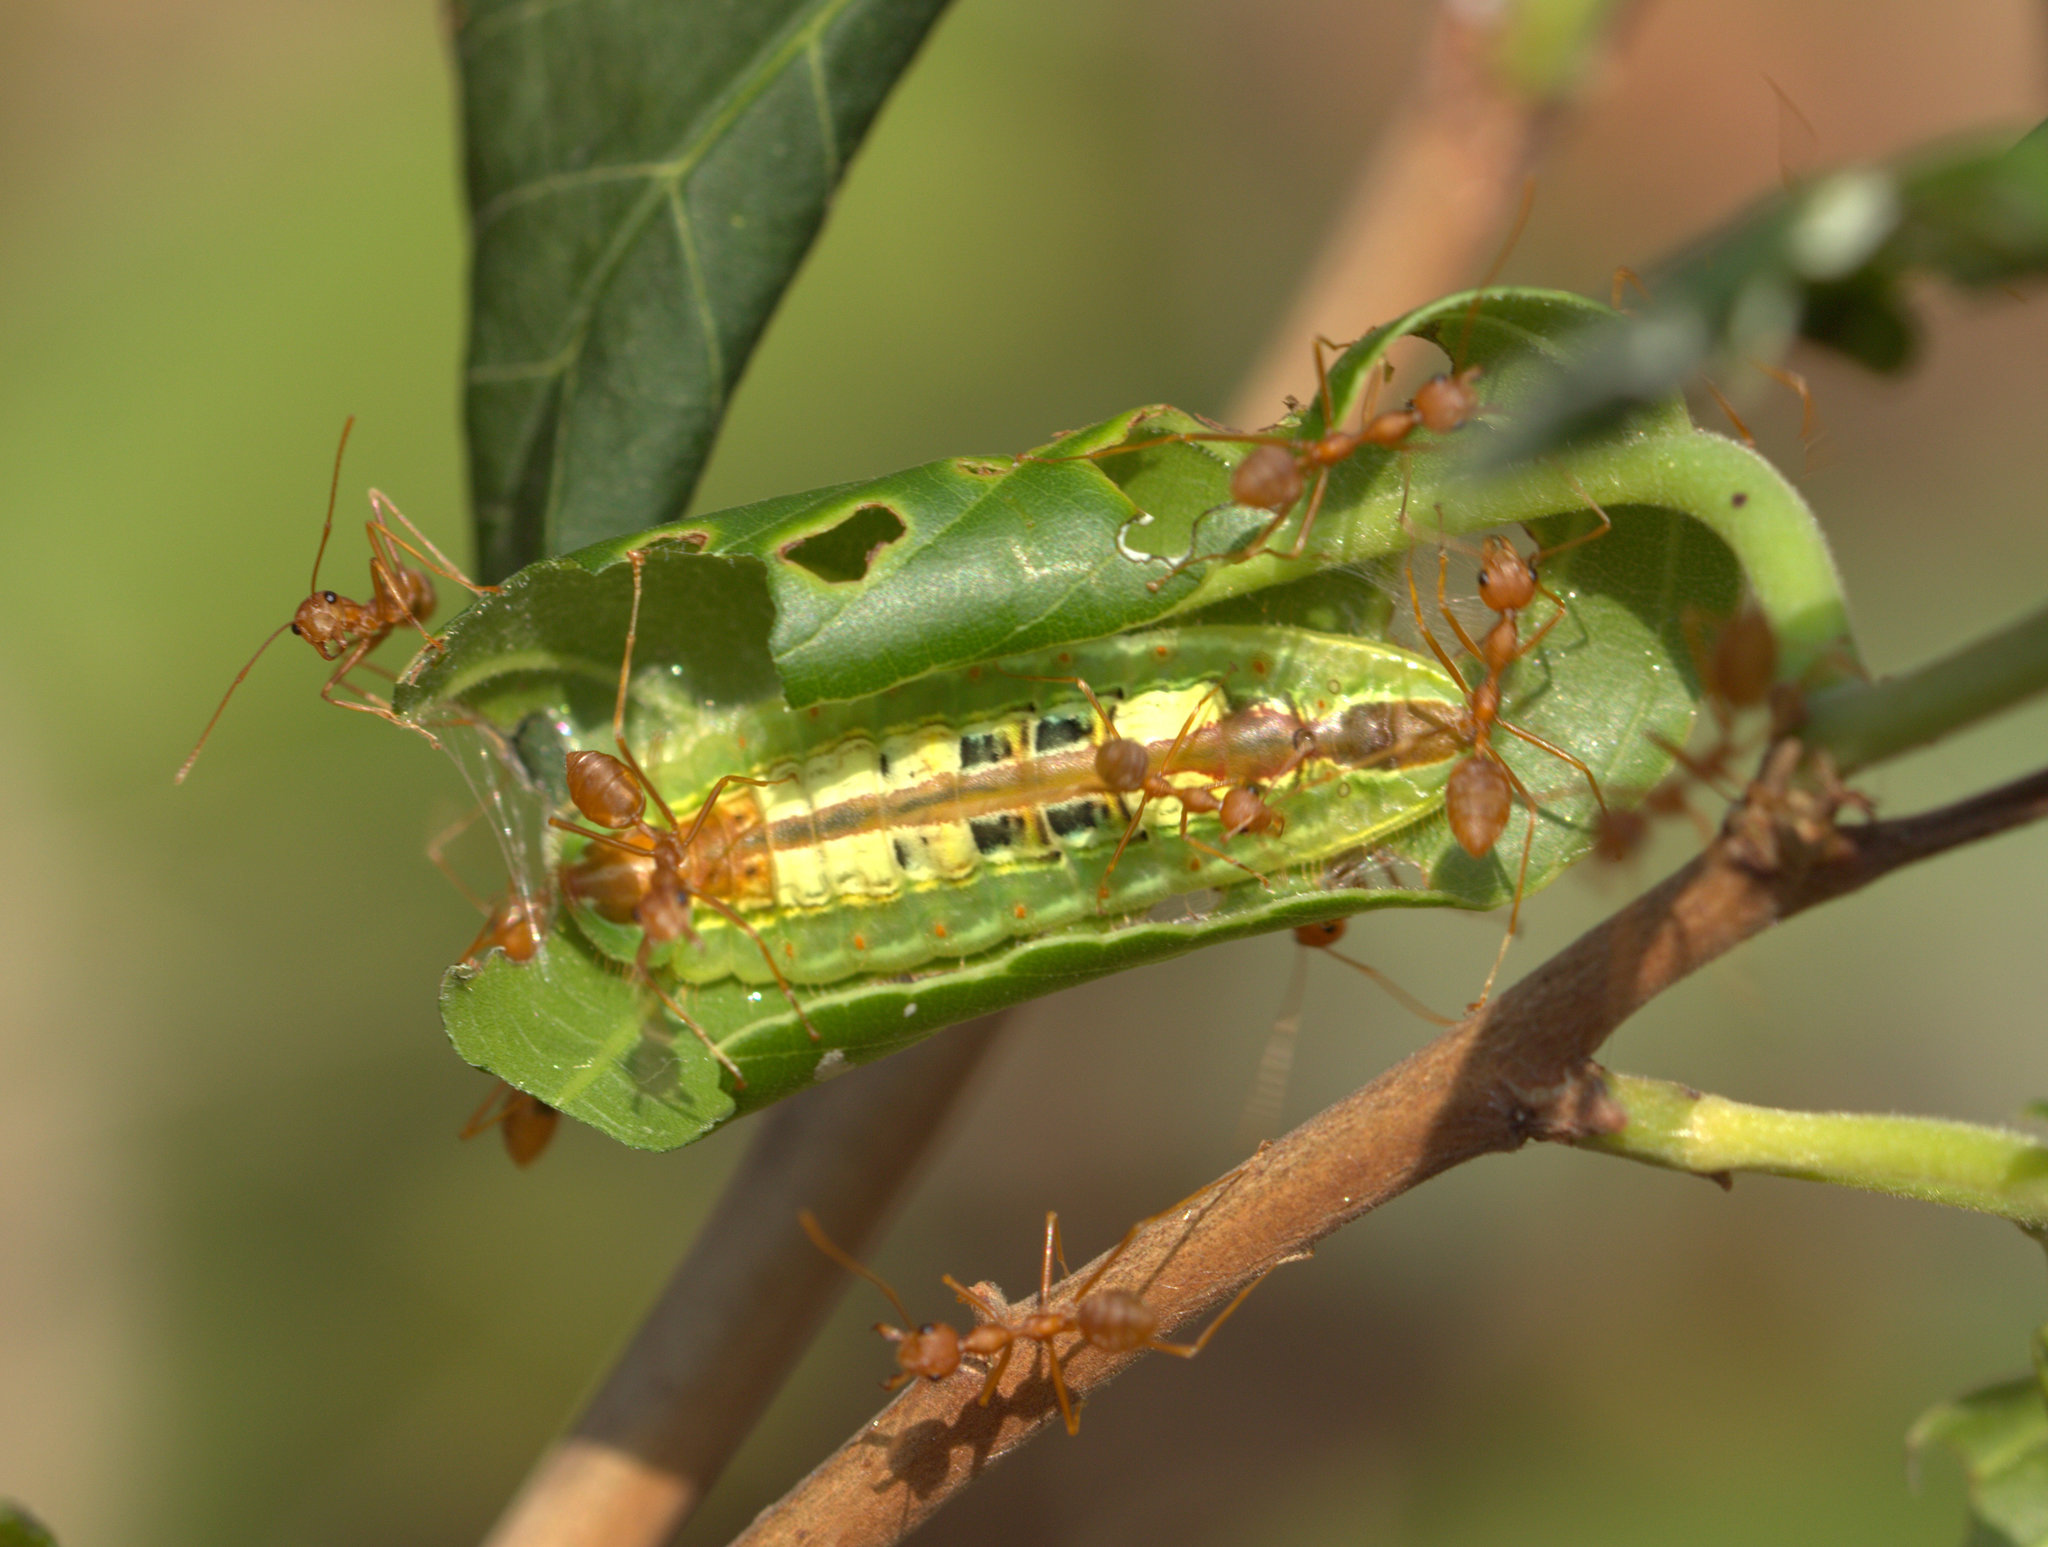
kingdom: Animalia
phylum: Arthropoda
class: Insecta
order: Lepidoptera
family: Lycaenidae
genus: Arhopala
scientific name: Arhopala amantes
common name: Large oakblue
